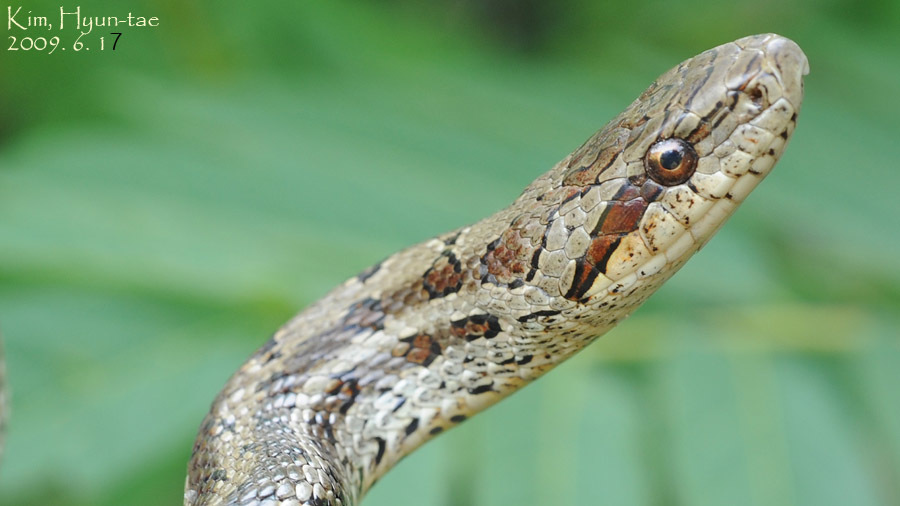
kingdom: Animalia
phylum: Chordata
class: Squamata
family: Colubridae
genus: Elaphe
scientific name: Elaphe dione
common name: Dione ratsnake
